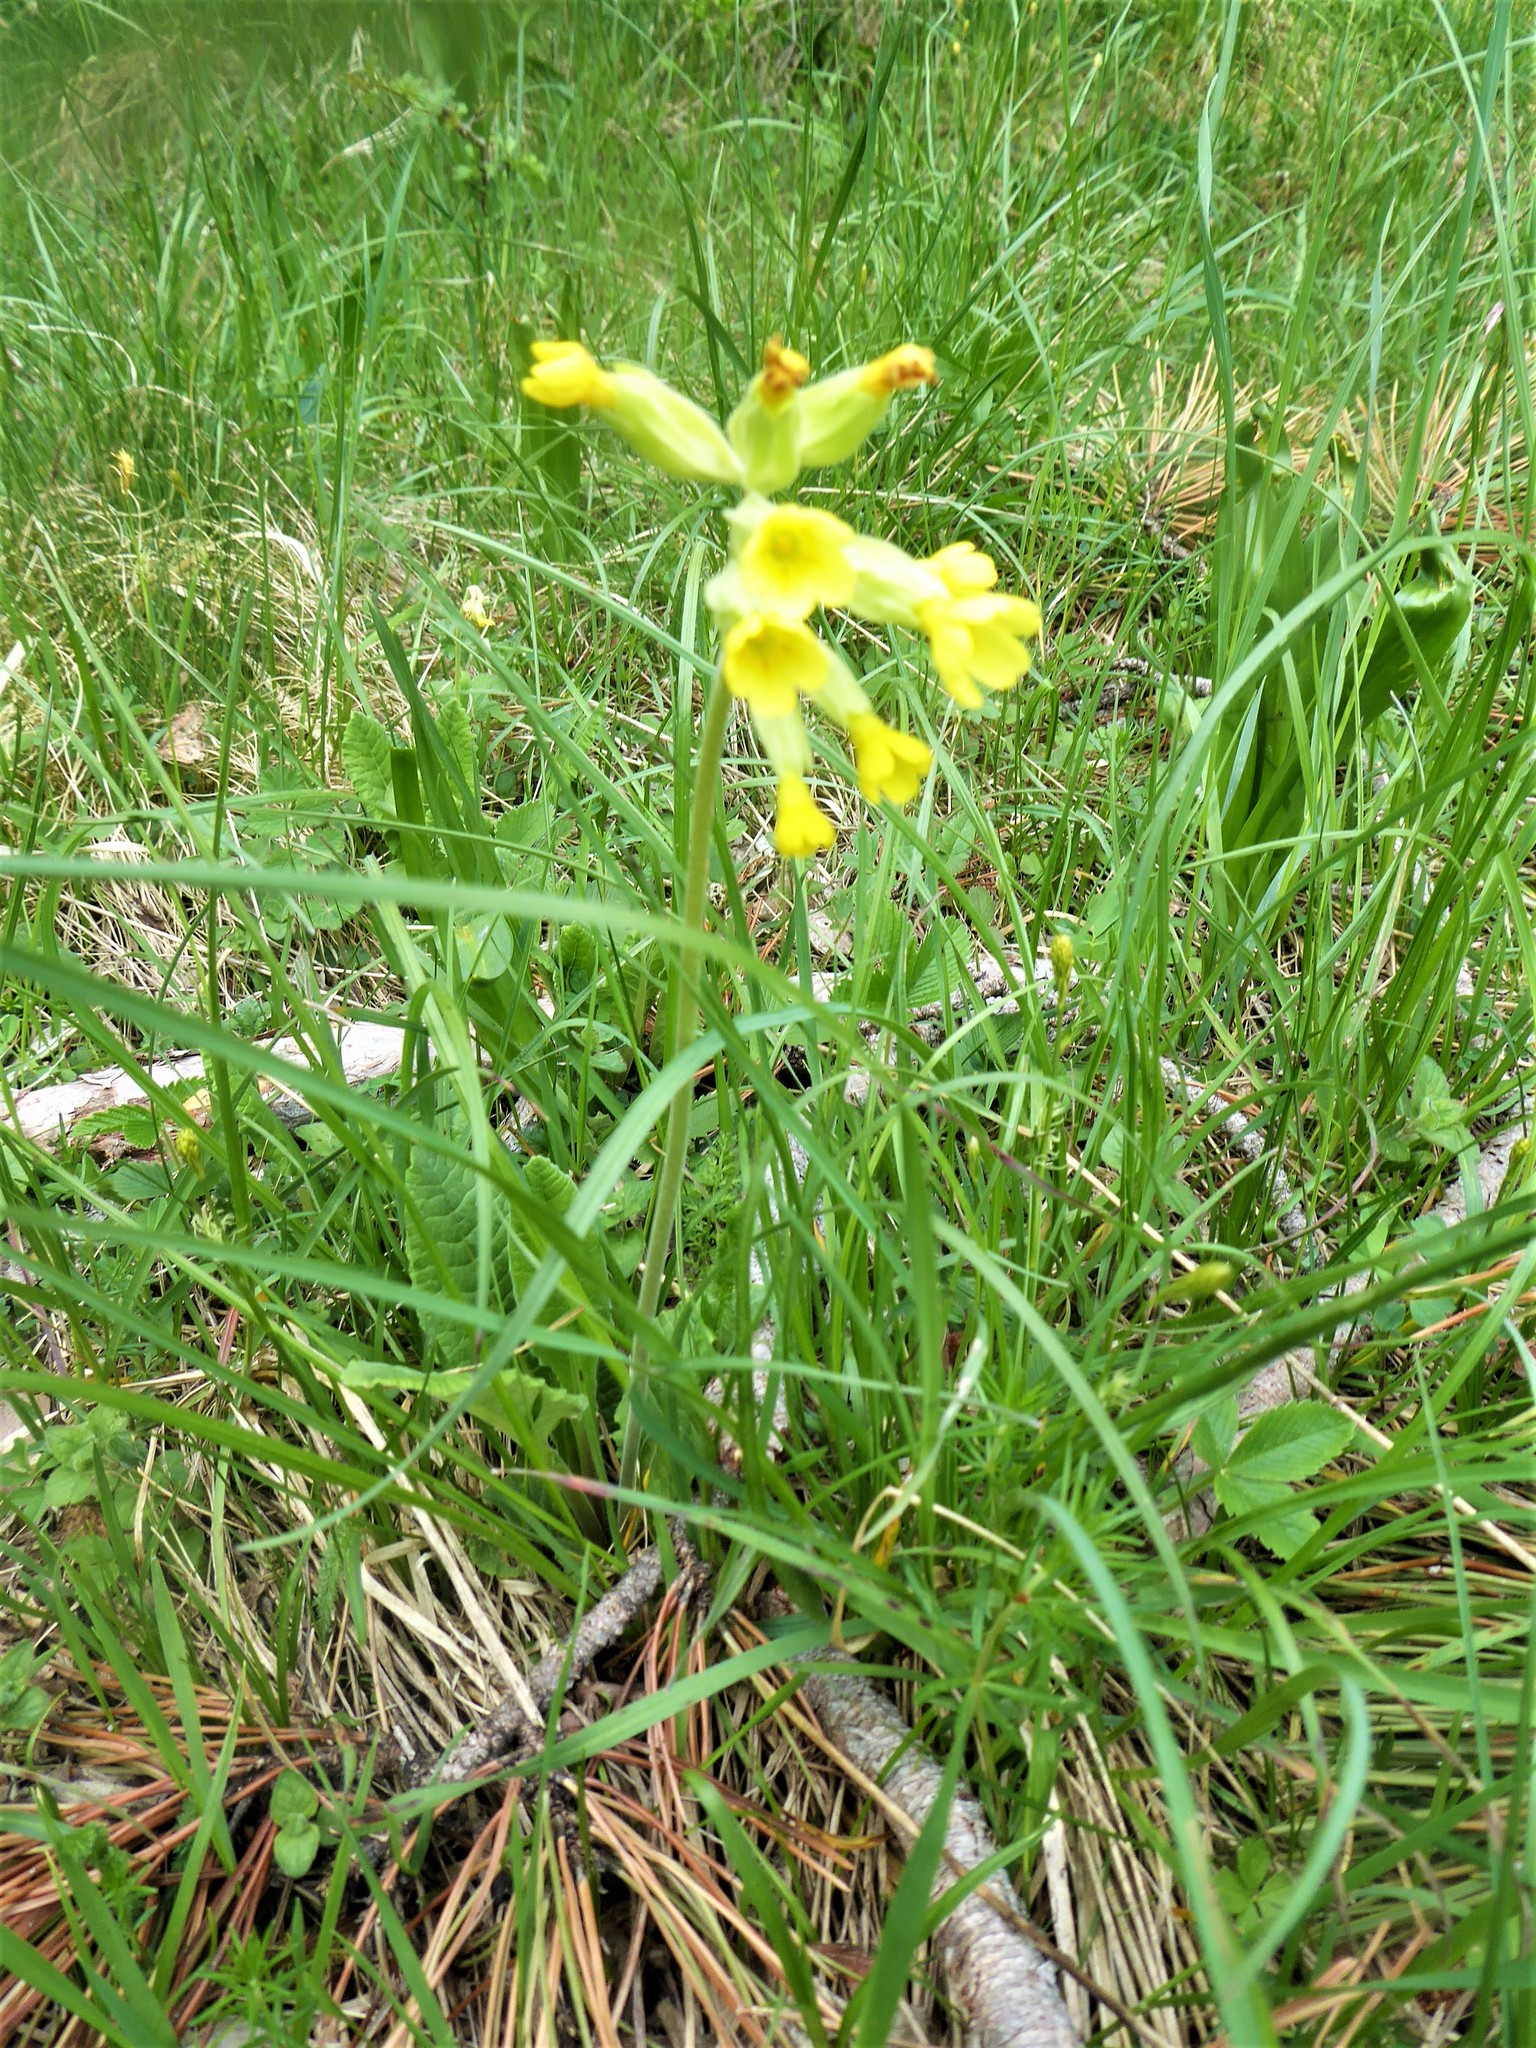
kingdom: Plantae
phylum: Tracheophyta
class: Magnoliopsida
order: Ericales
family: Primulaceae
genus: Primula
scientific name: Primula veris
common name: Cowslip
